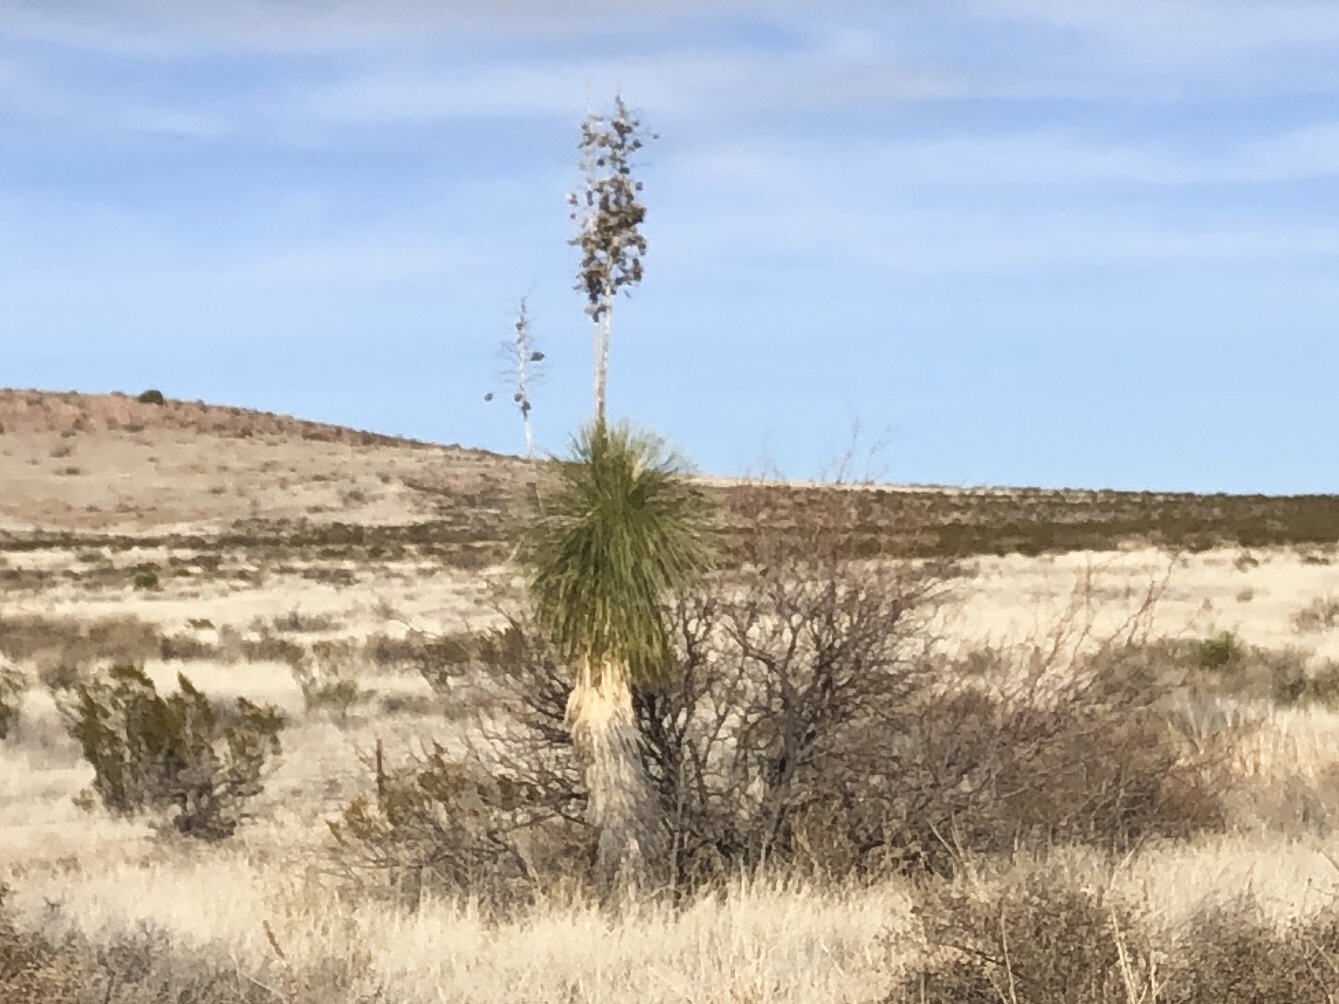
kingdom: Plantae
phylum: Tracheophyta
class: Liliopsida
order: Asparagales
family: Asparagaceae
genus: Yucca
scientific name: Yucca elata
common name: Palmella
